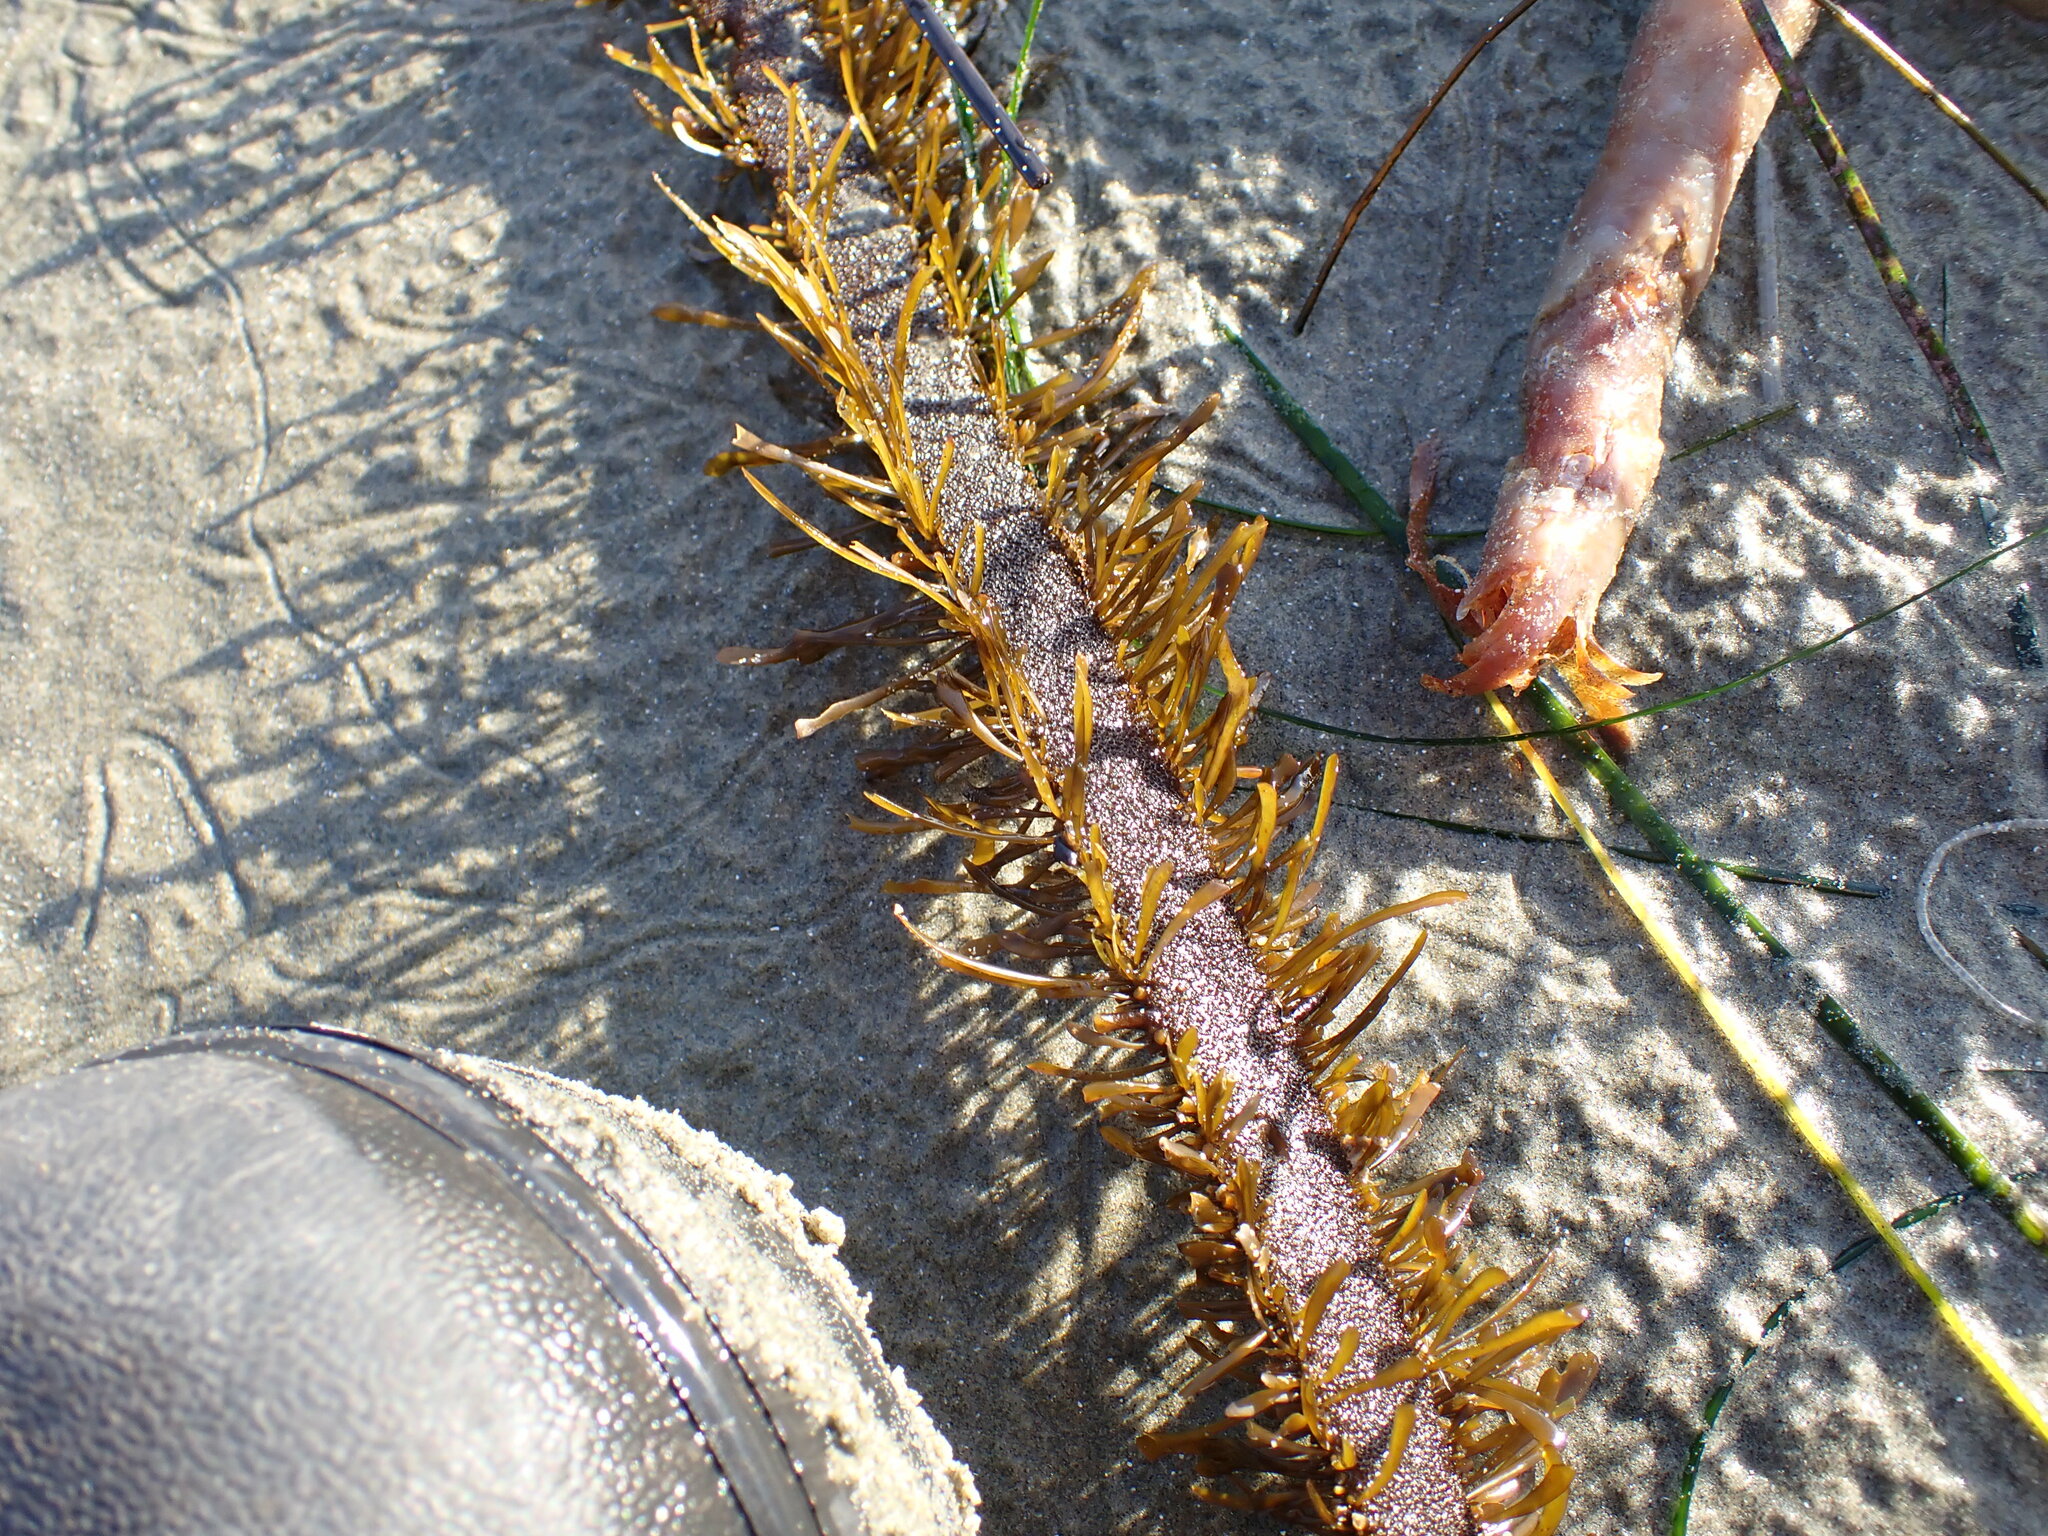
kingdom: Chromista
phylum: Ochrophyta
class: Phaeophyceae
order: Laminariales
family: Lessoniaceae
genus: Egregia
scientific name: Egregia menziesii
